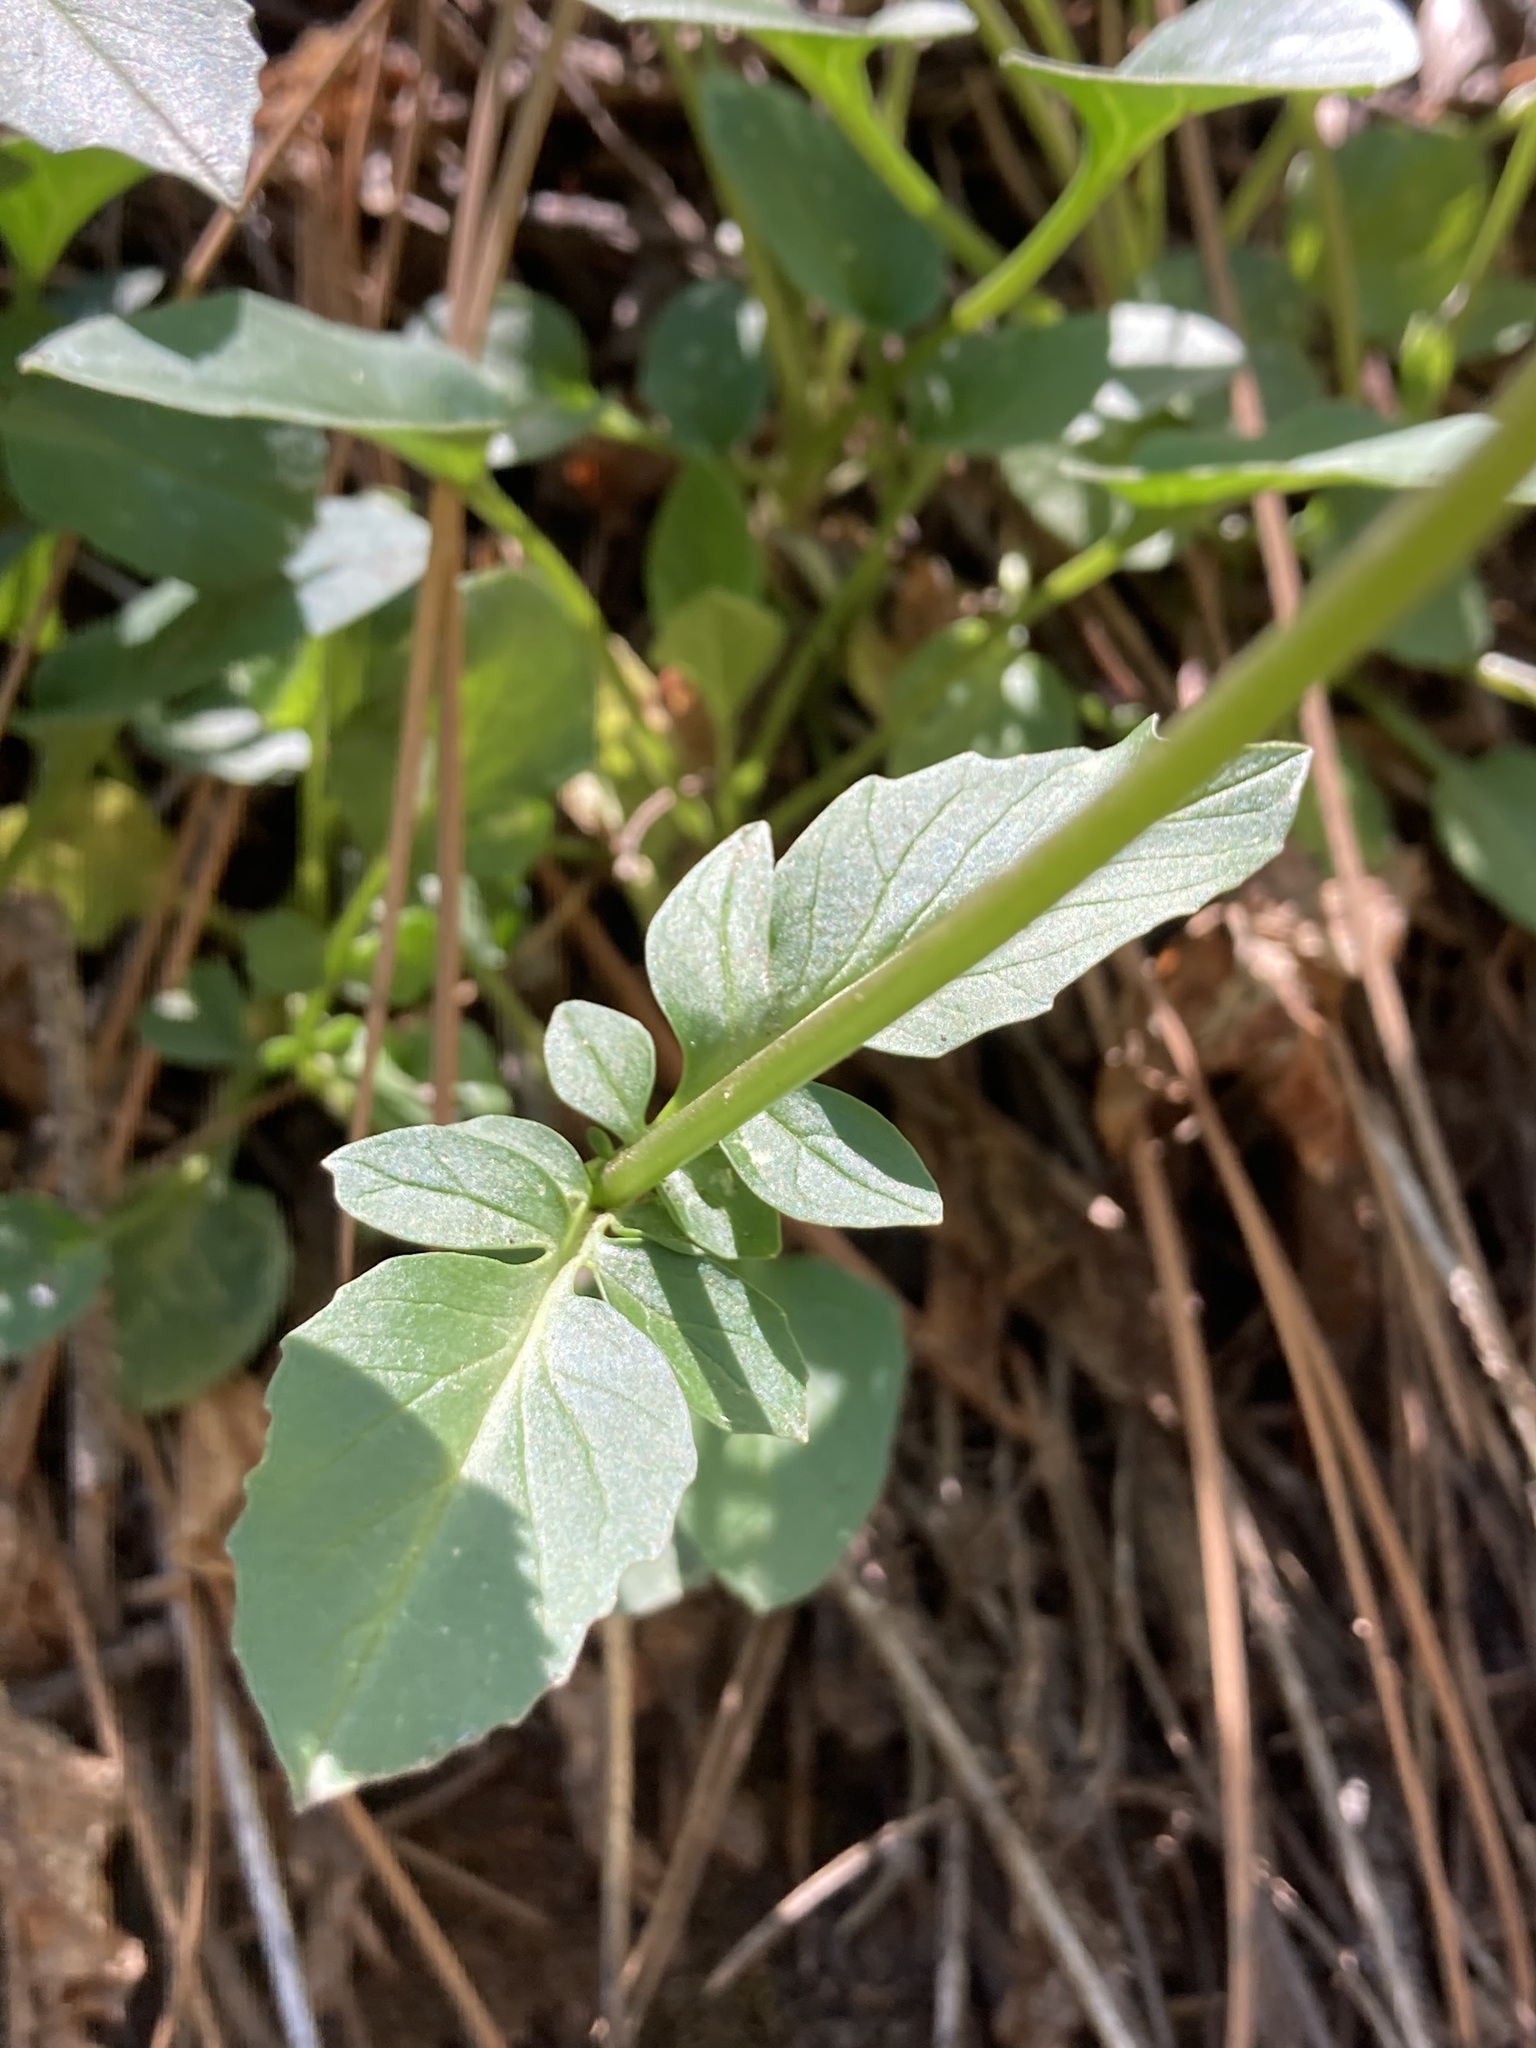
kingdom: Plantae
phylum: Tracheophyta
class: Magnoliopsida
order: Dipsacales
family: Caprifoliaceae
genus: Valeriana
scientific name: Valeriana arizonica
